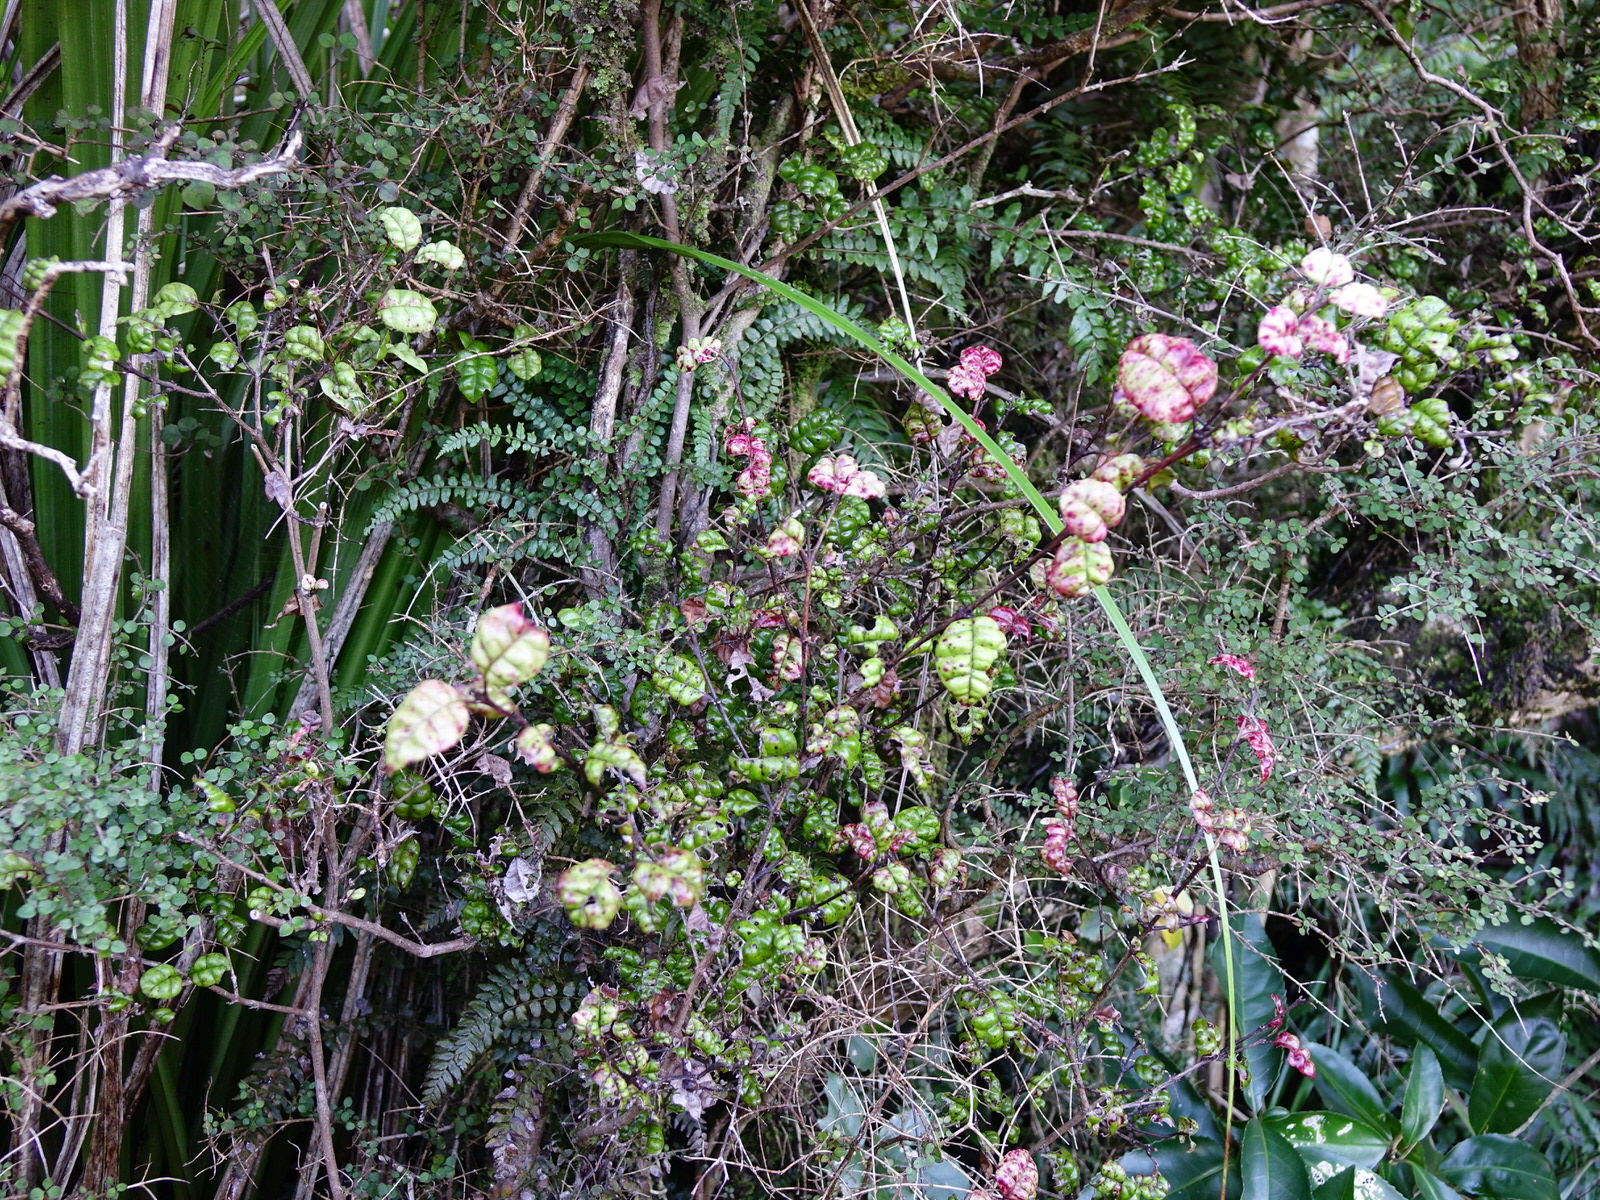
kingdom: Plantae
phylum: Tracheophyta
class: Magnoliopsida
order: Myrtales
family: Myrtaceae
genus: Lophomyrtus
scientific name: Lophomyrtus bullata
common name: Rama rama
